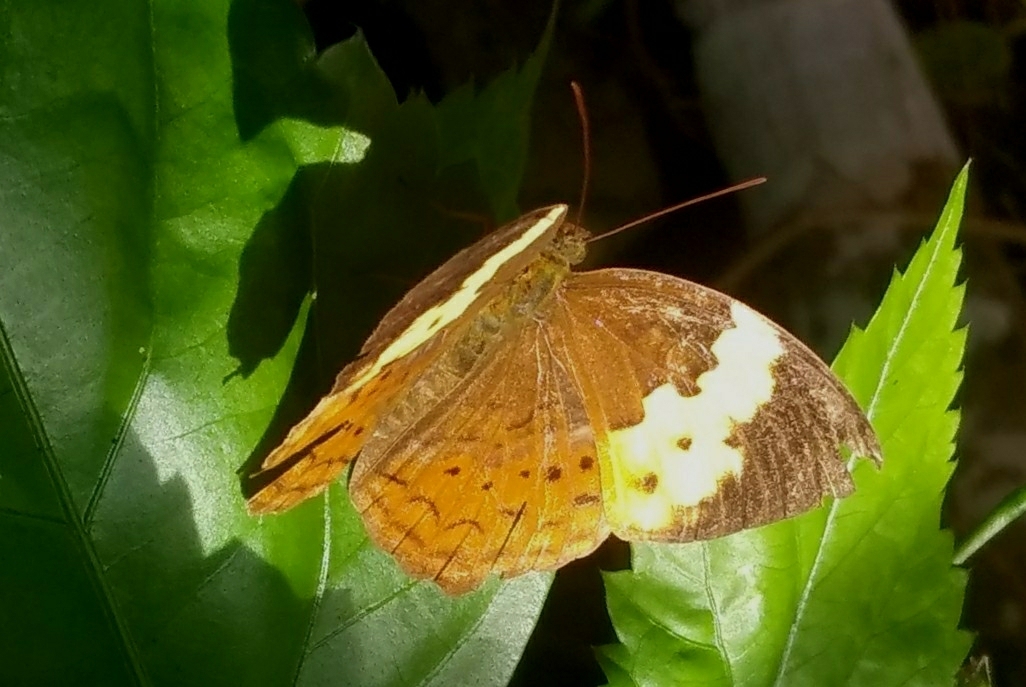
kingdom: Animalia
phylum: Arthropoda
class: Insecta
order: Lepidoptera
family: Nymphalidae
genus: Cupha
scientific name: Cupha erymanthis
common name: Rustic
